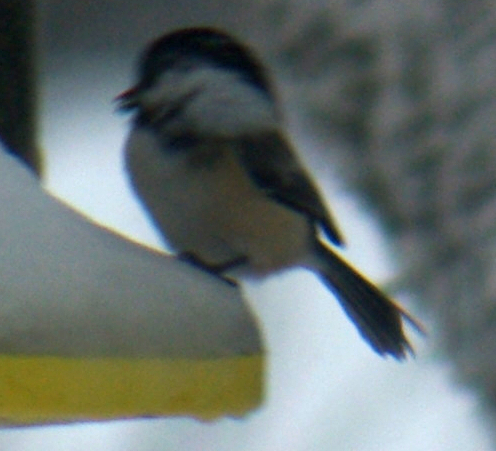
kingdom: Animalia
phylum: Chordata
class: Aves
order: Passeriformes
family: Paridae
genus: Poecile
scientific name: Poecile atricapillus
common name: Black-capped chickadee
